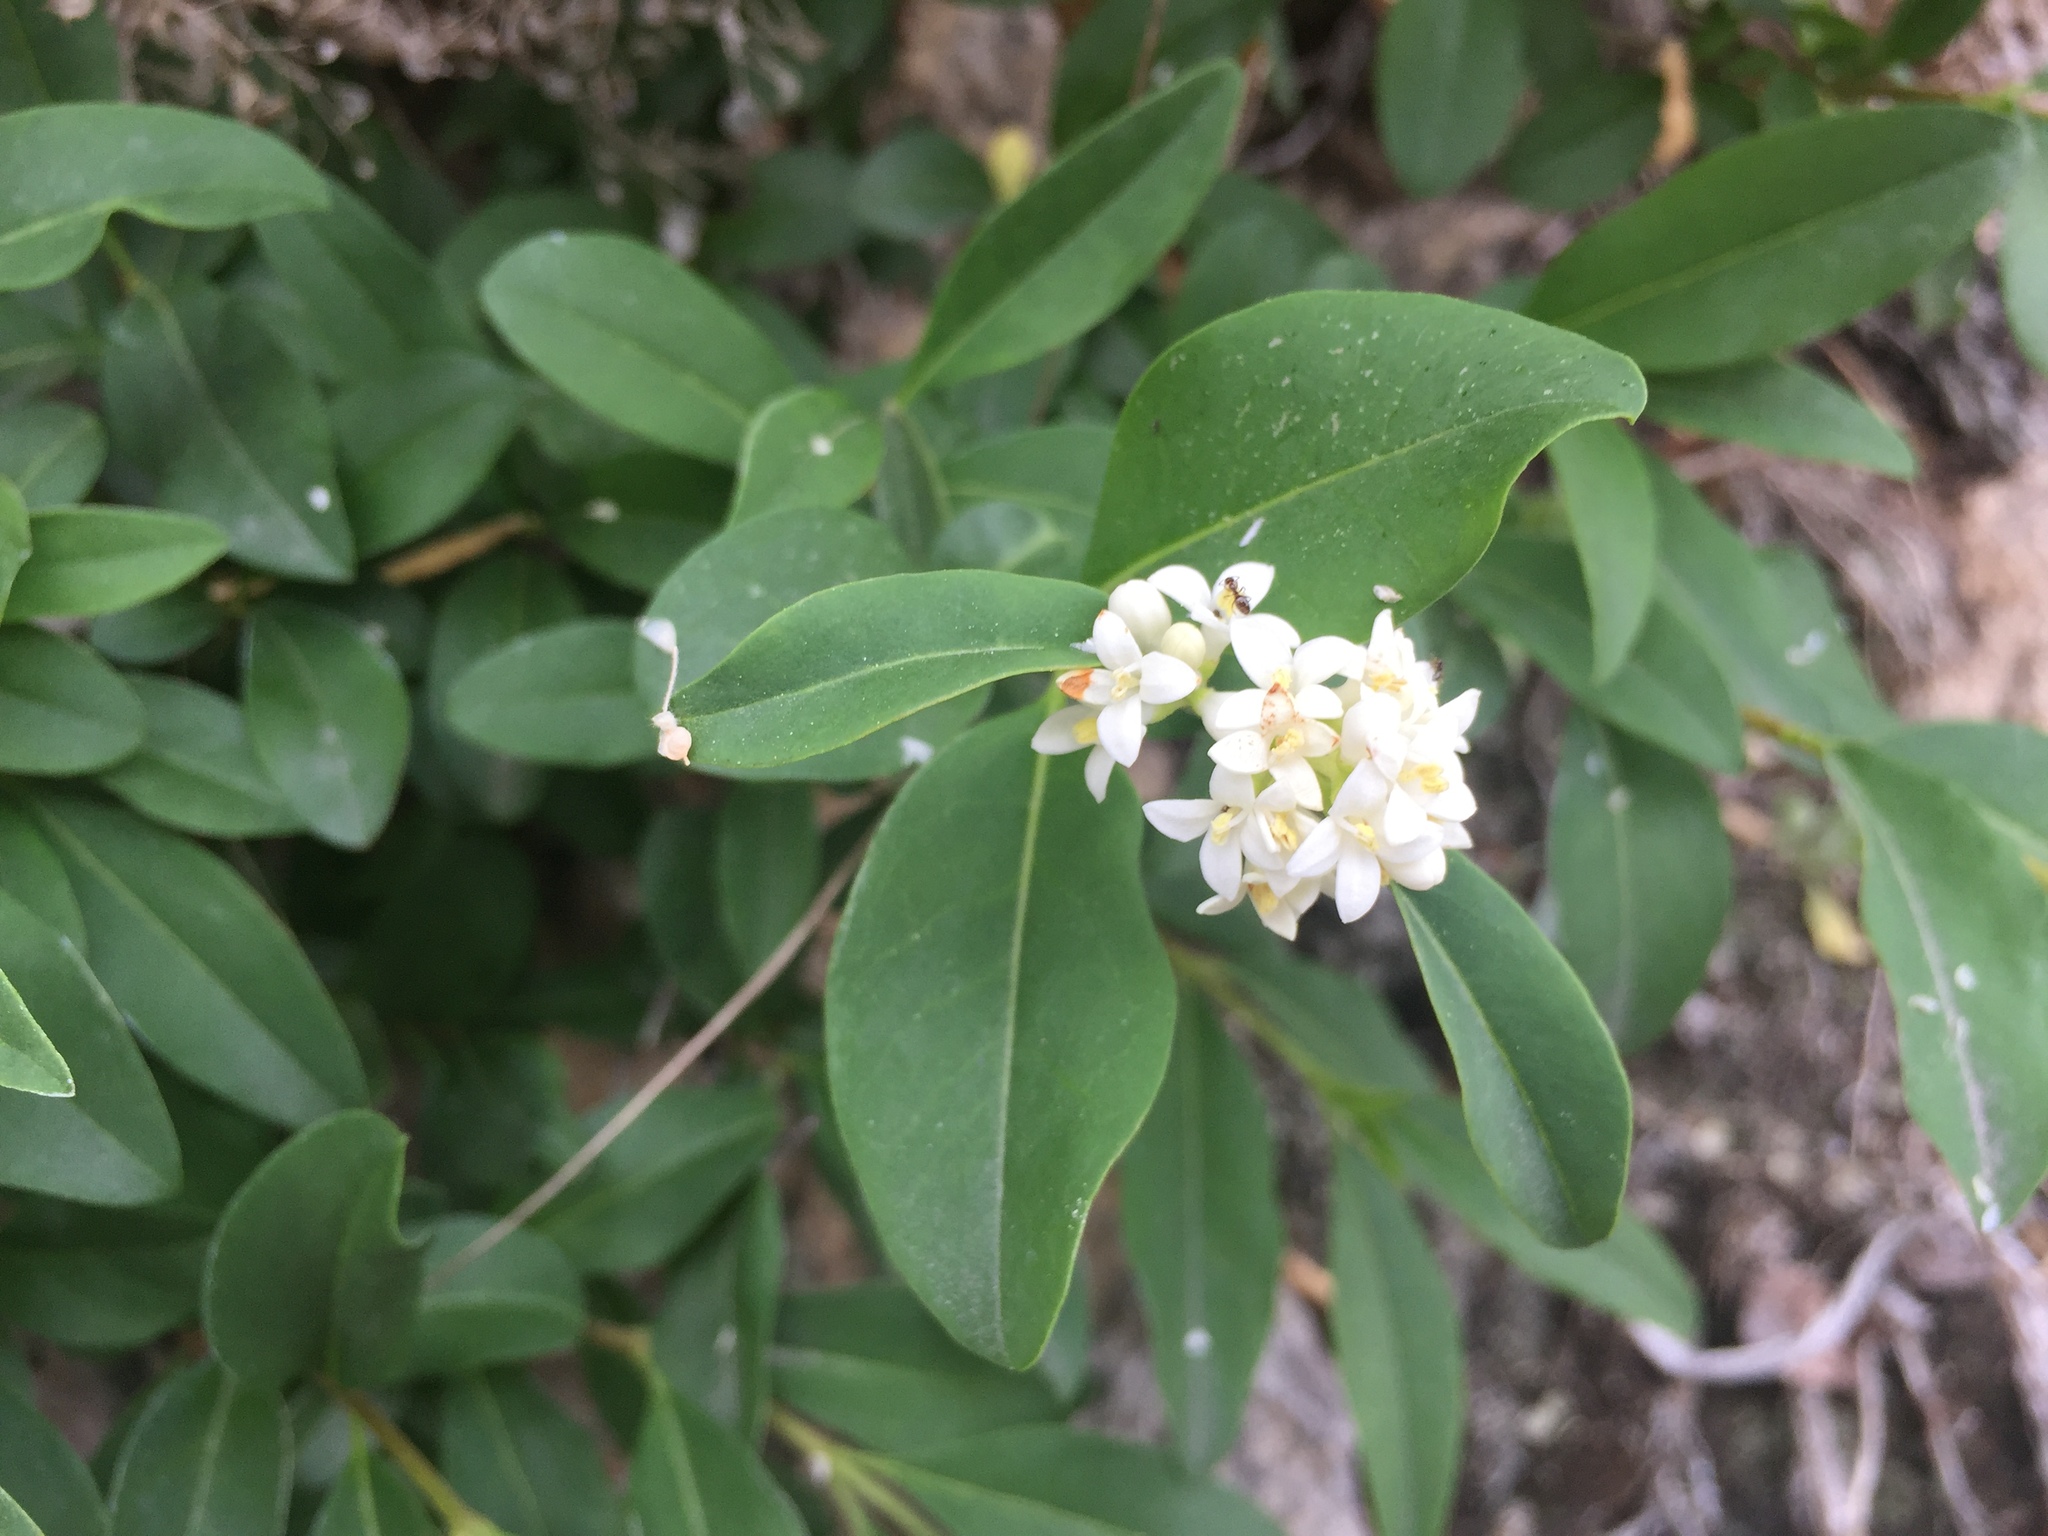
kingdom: Plantae
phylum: Tracheophyta
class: Magnoliopsida
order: Lamiales
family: Oleaceae
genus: Ligustrum
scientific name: Ligustrum vulgare
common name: Wild privet
